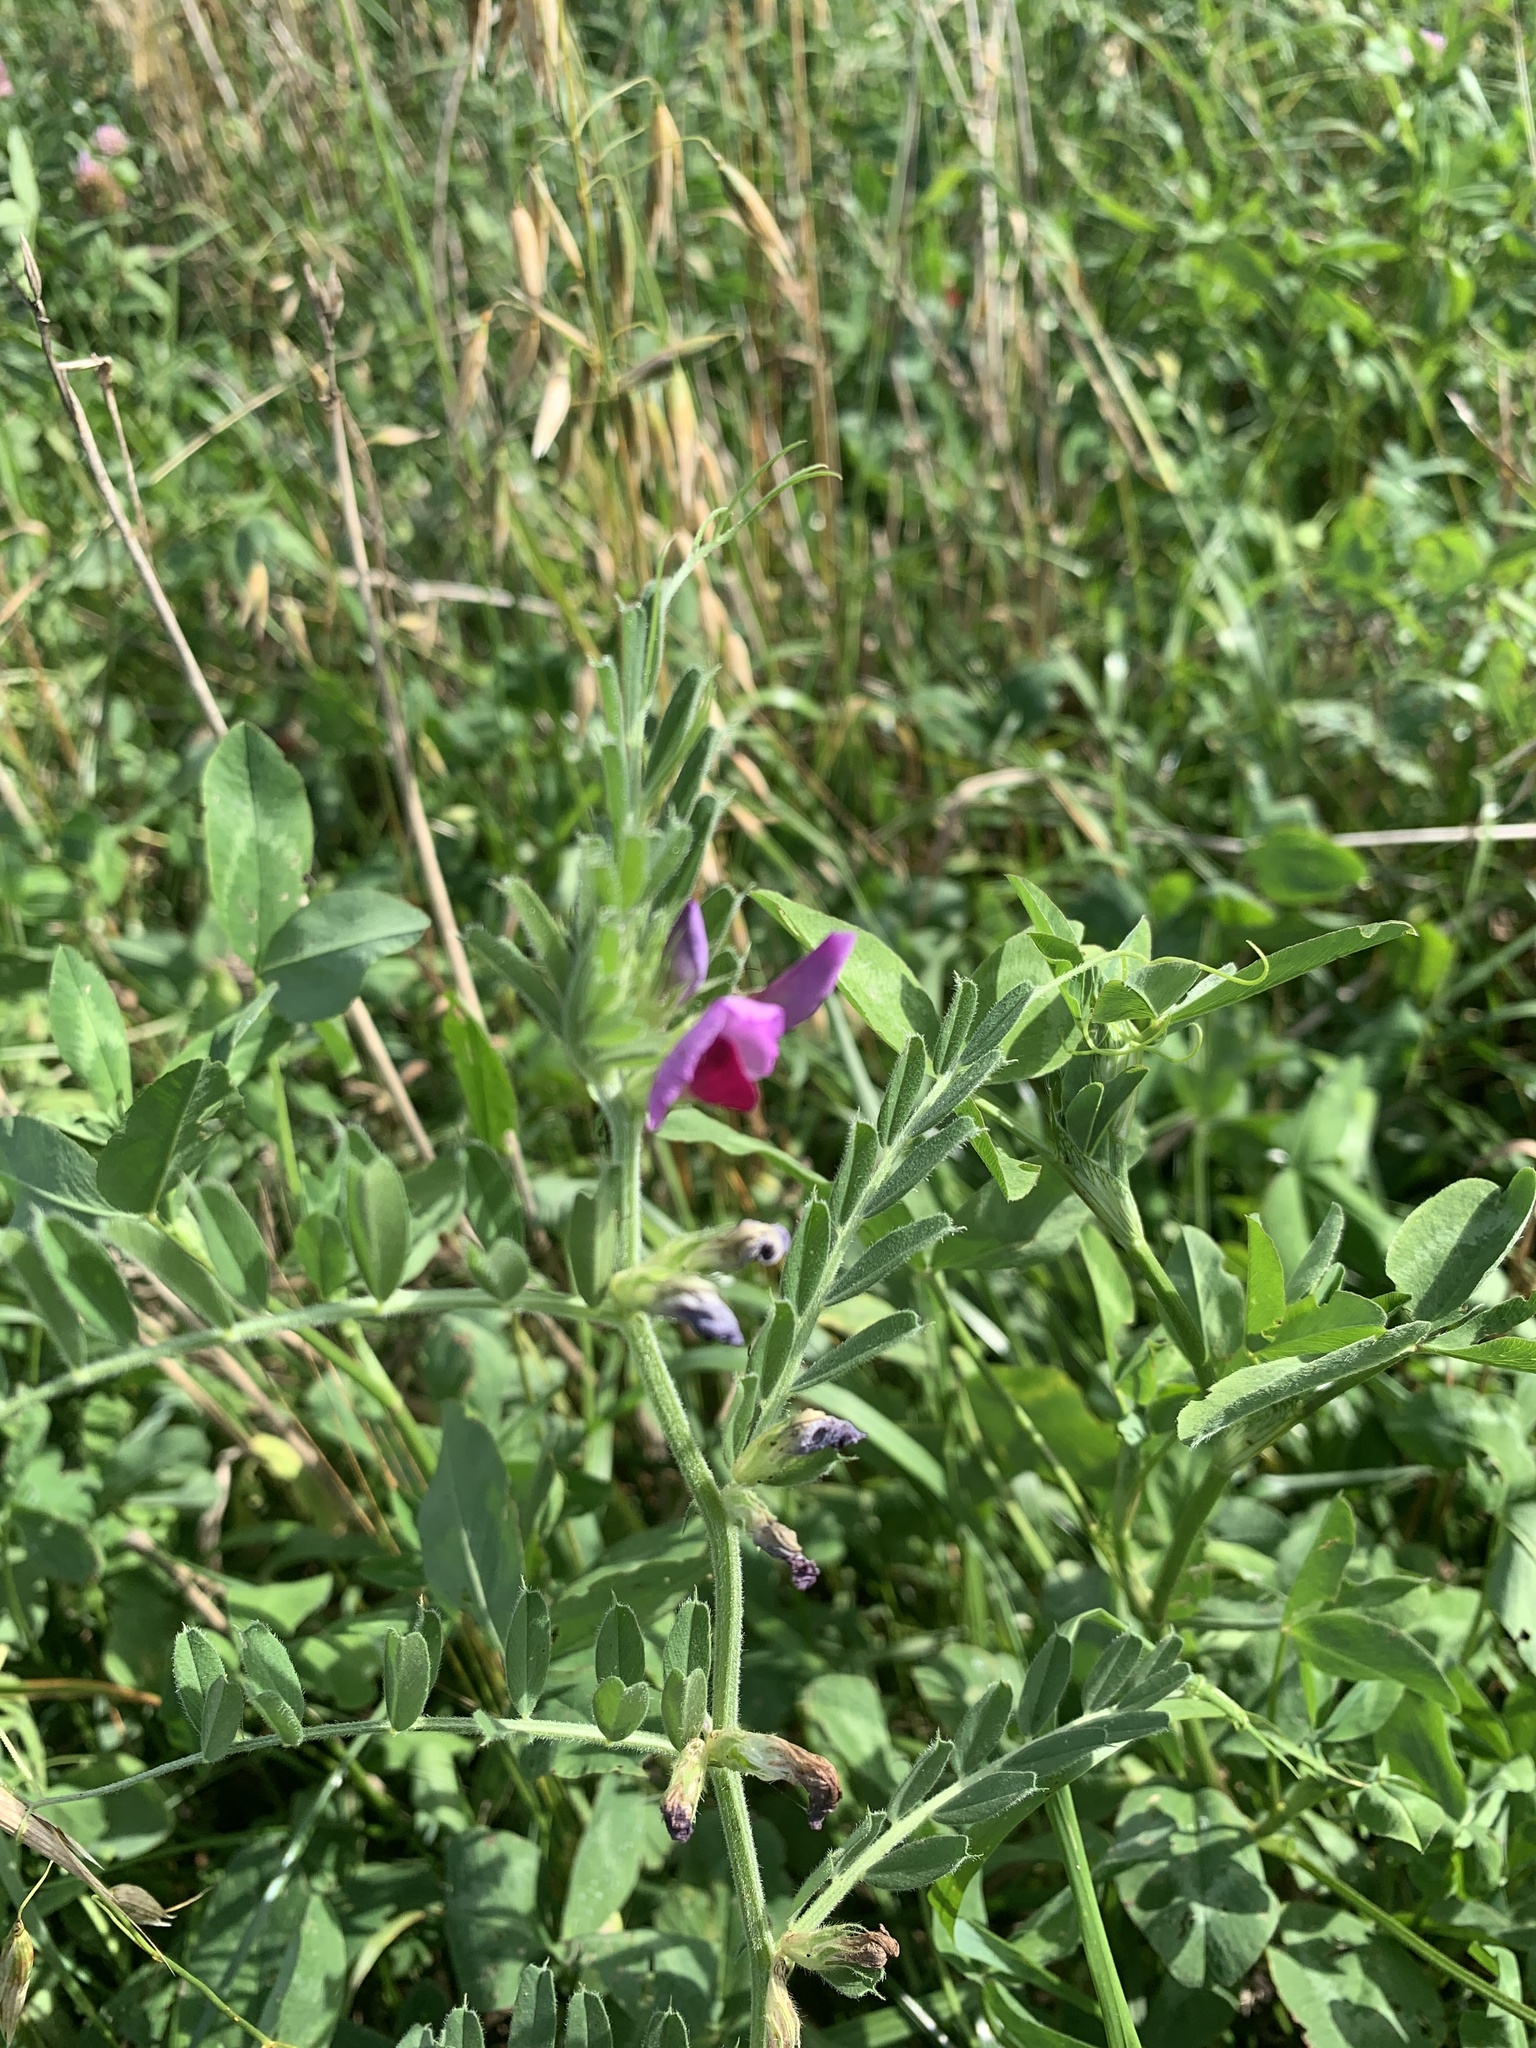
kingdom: Plantae
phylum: Tracheophyta
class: Magnoliopsida
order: Fabales
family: Fabaceae
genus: Vicia
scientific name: Vicia sativa
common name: Garden vetch
